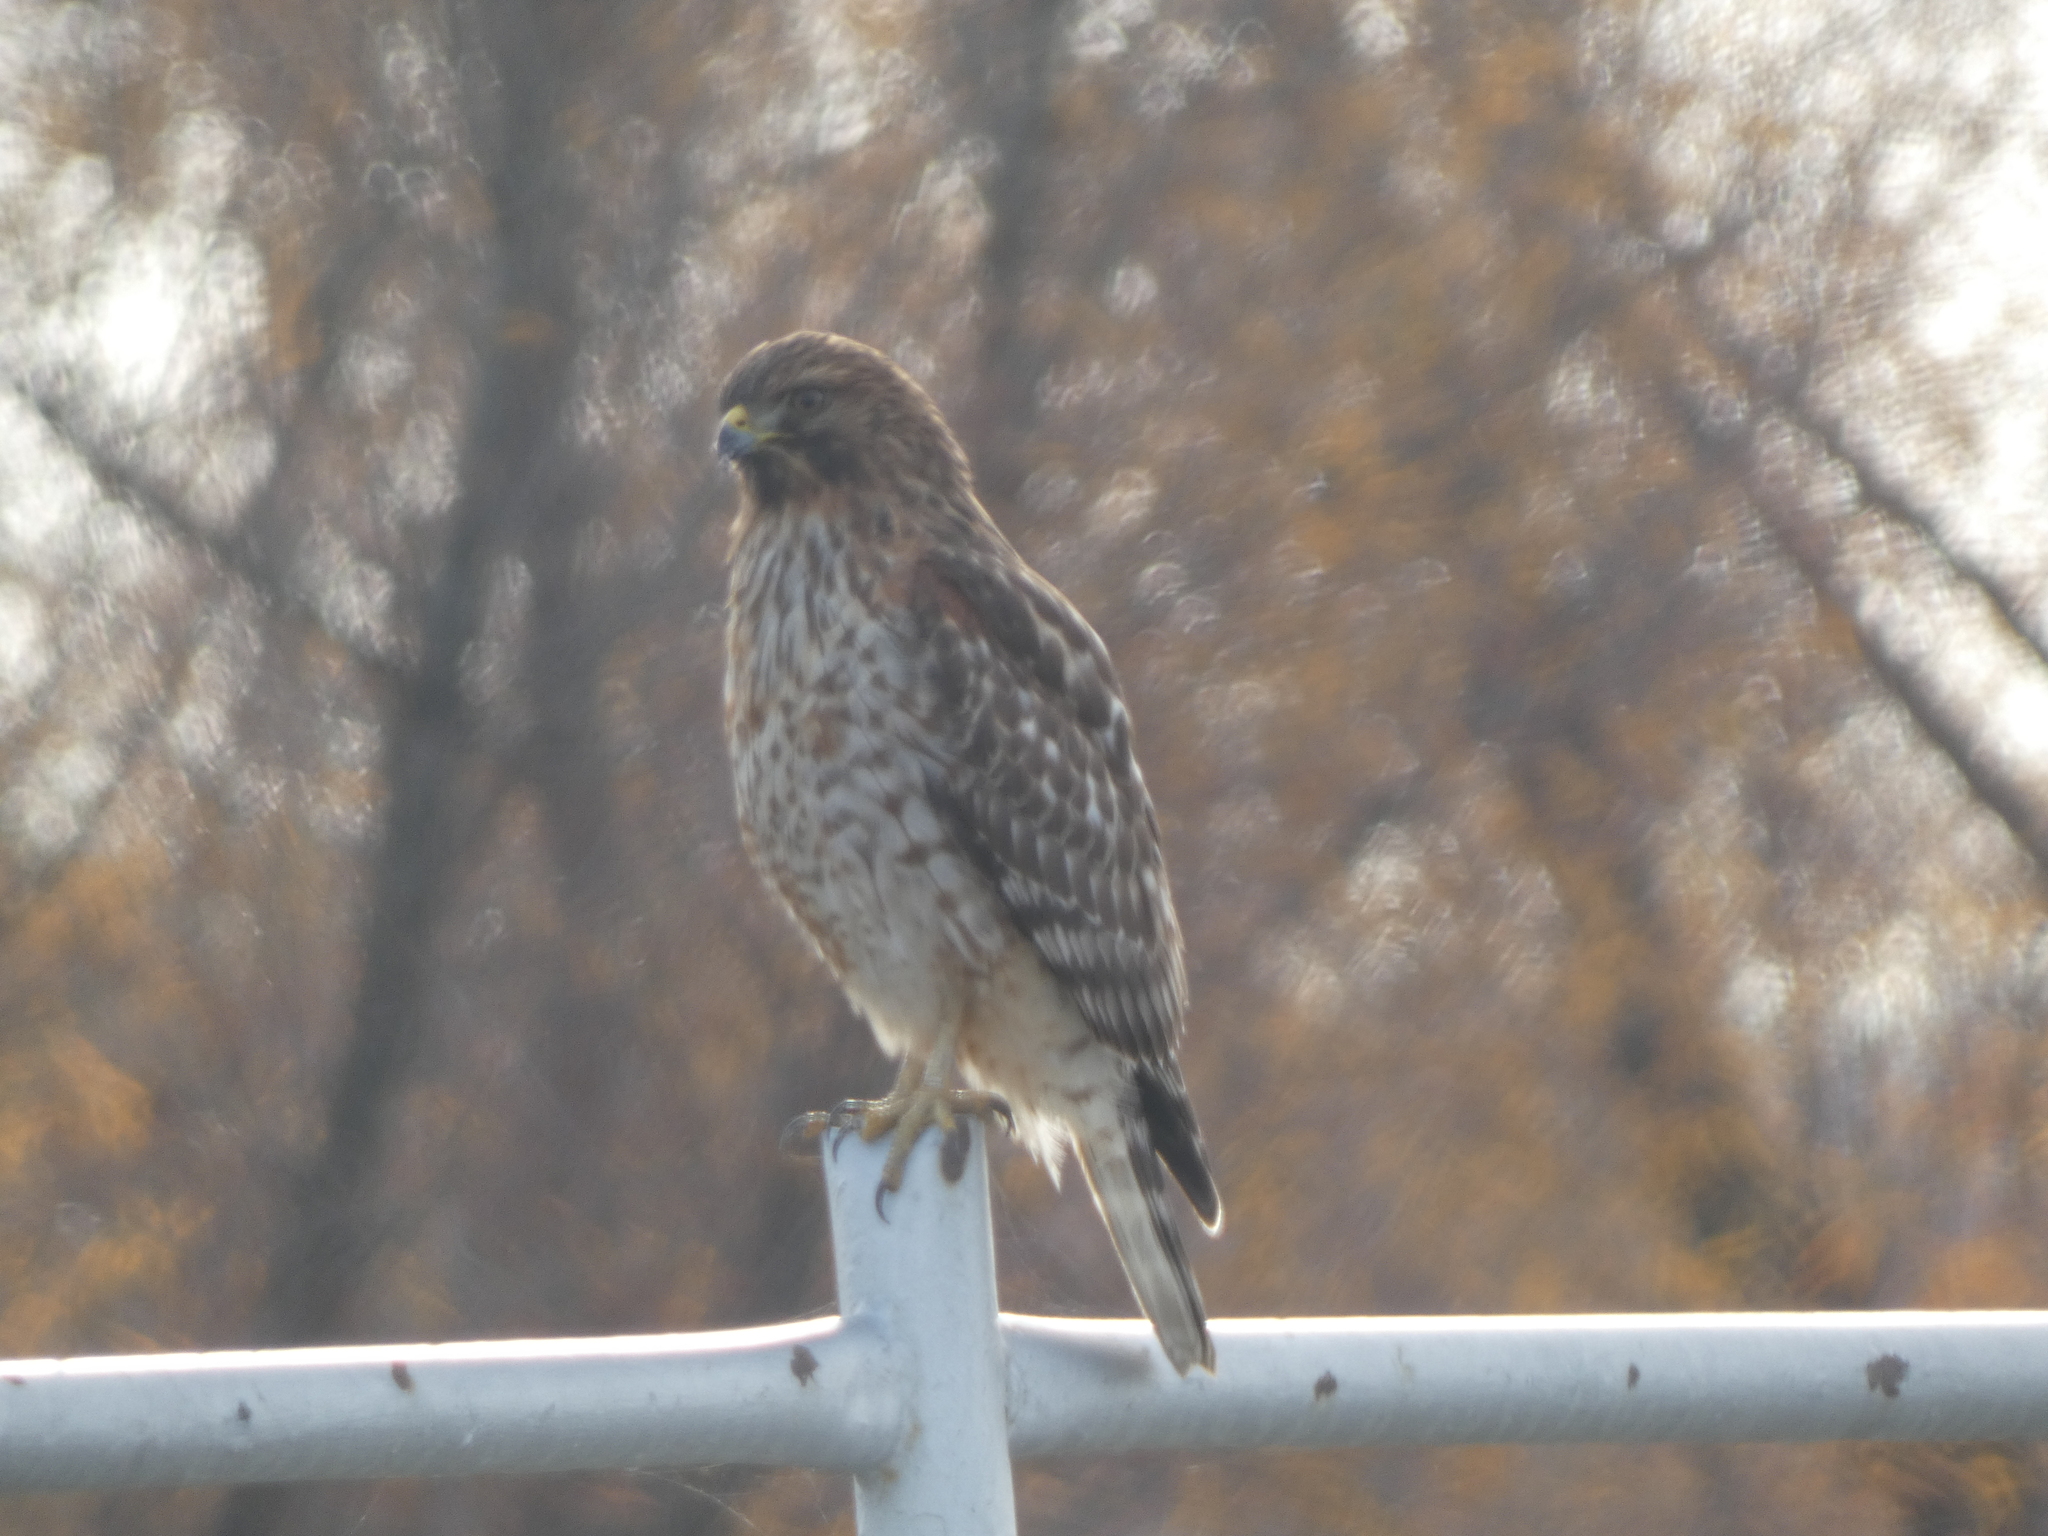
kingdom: Animalia
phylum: Chordata
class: Aves
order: Accipitriformes
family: Accipitridae
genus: Buteo
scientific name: Buteo lineatus
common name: Red-shouldered hawk
